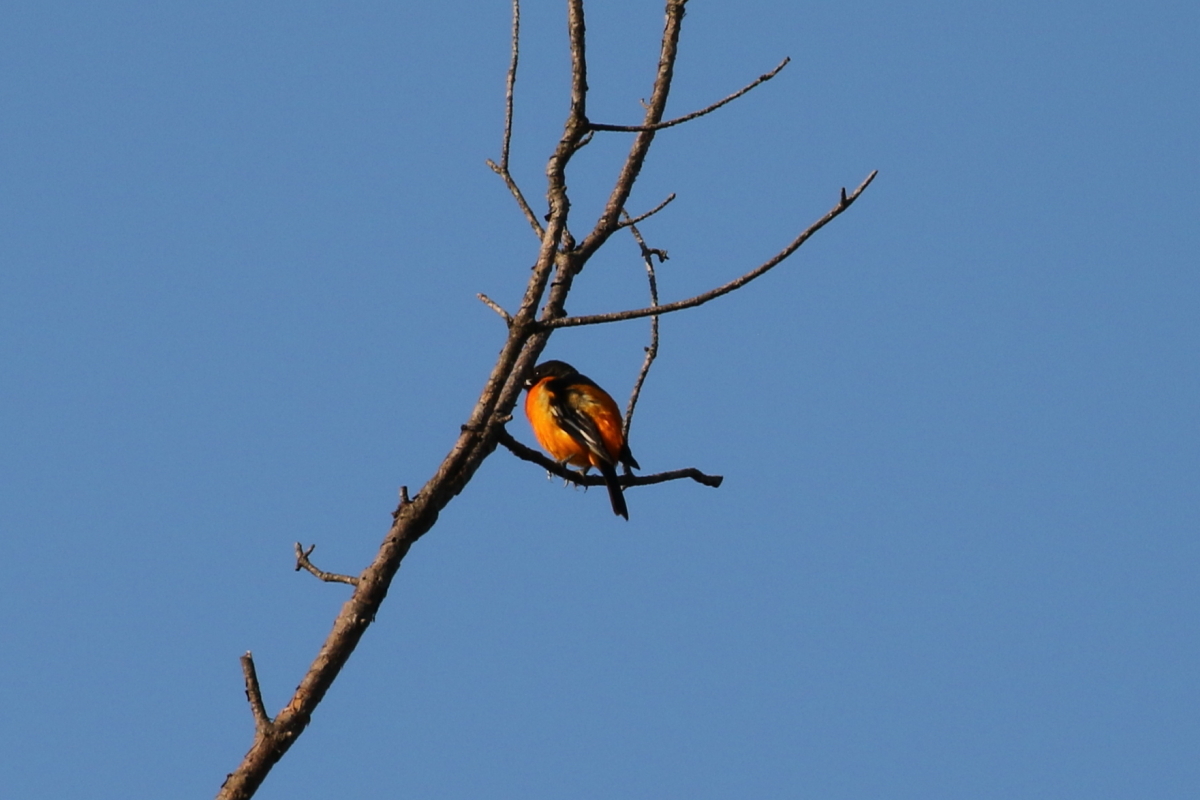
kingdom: Animalia
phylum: Chordata
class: Aves
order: Passeriformes
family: Icteridae
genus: Icterus
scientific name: Icterus galbula
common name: Baltimore oriole
